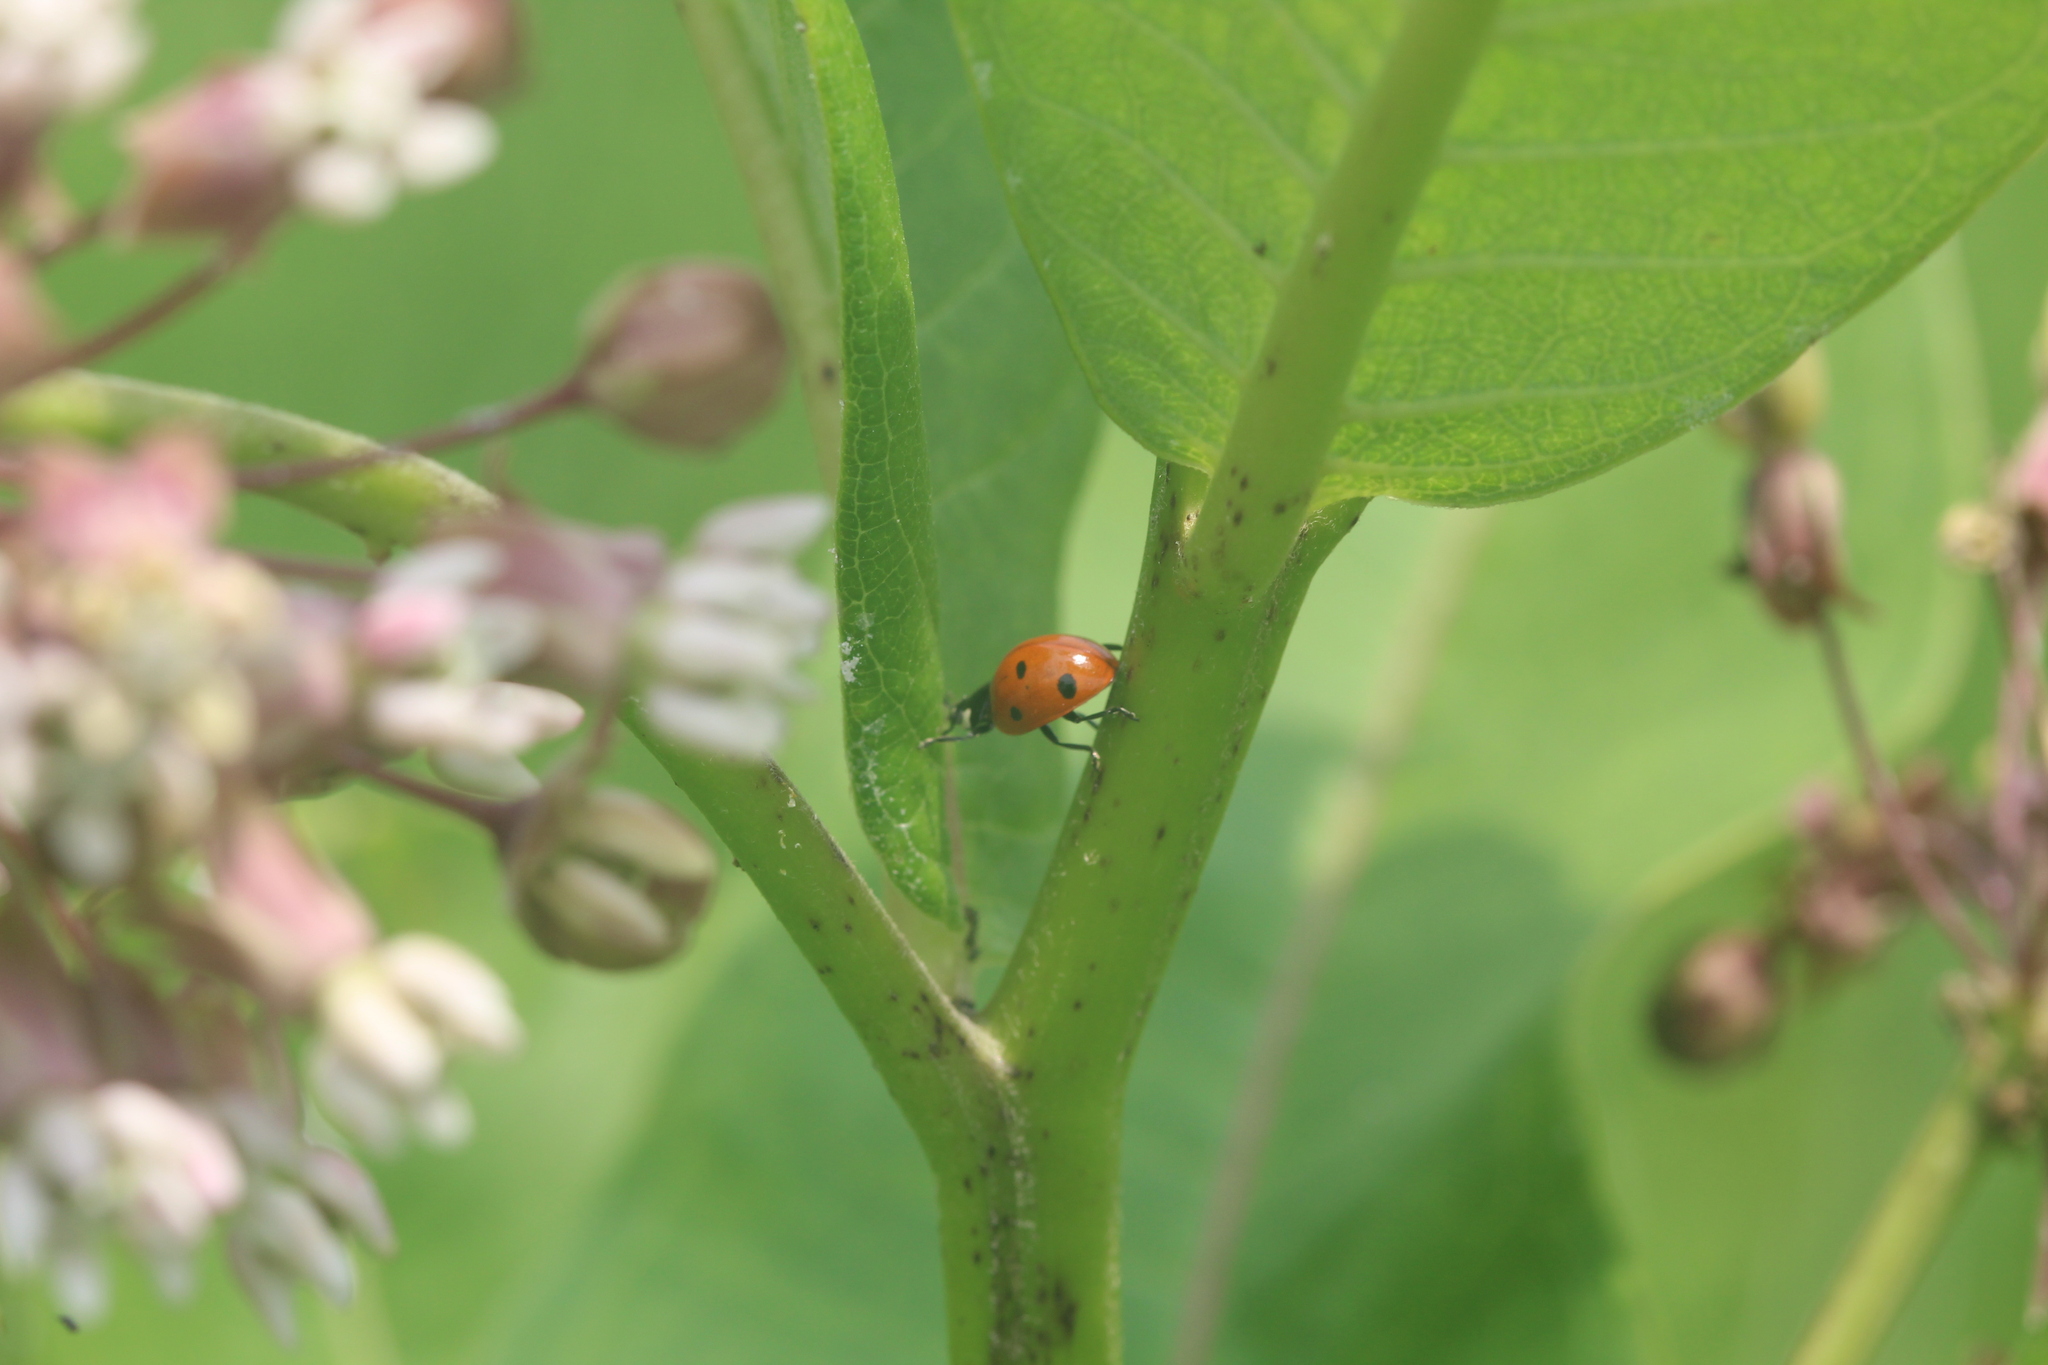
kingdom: Animalia
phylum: Arthropoda
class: Insecta
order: Coleoptera
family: Coccinellidae
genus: Coccinella
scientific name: Coccinella septempunctata
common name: Sevenspotted lady beetle
